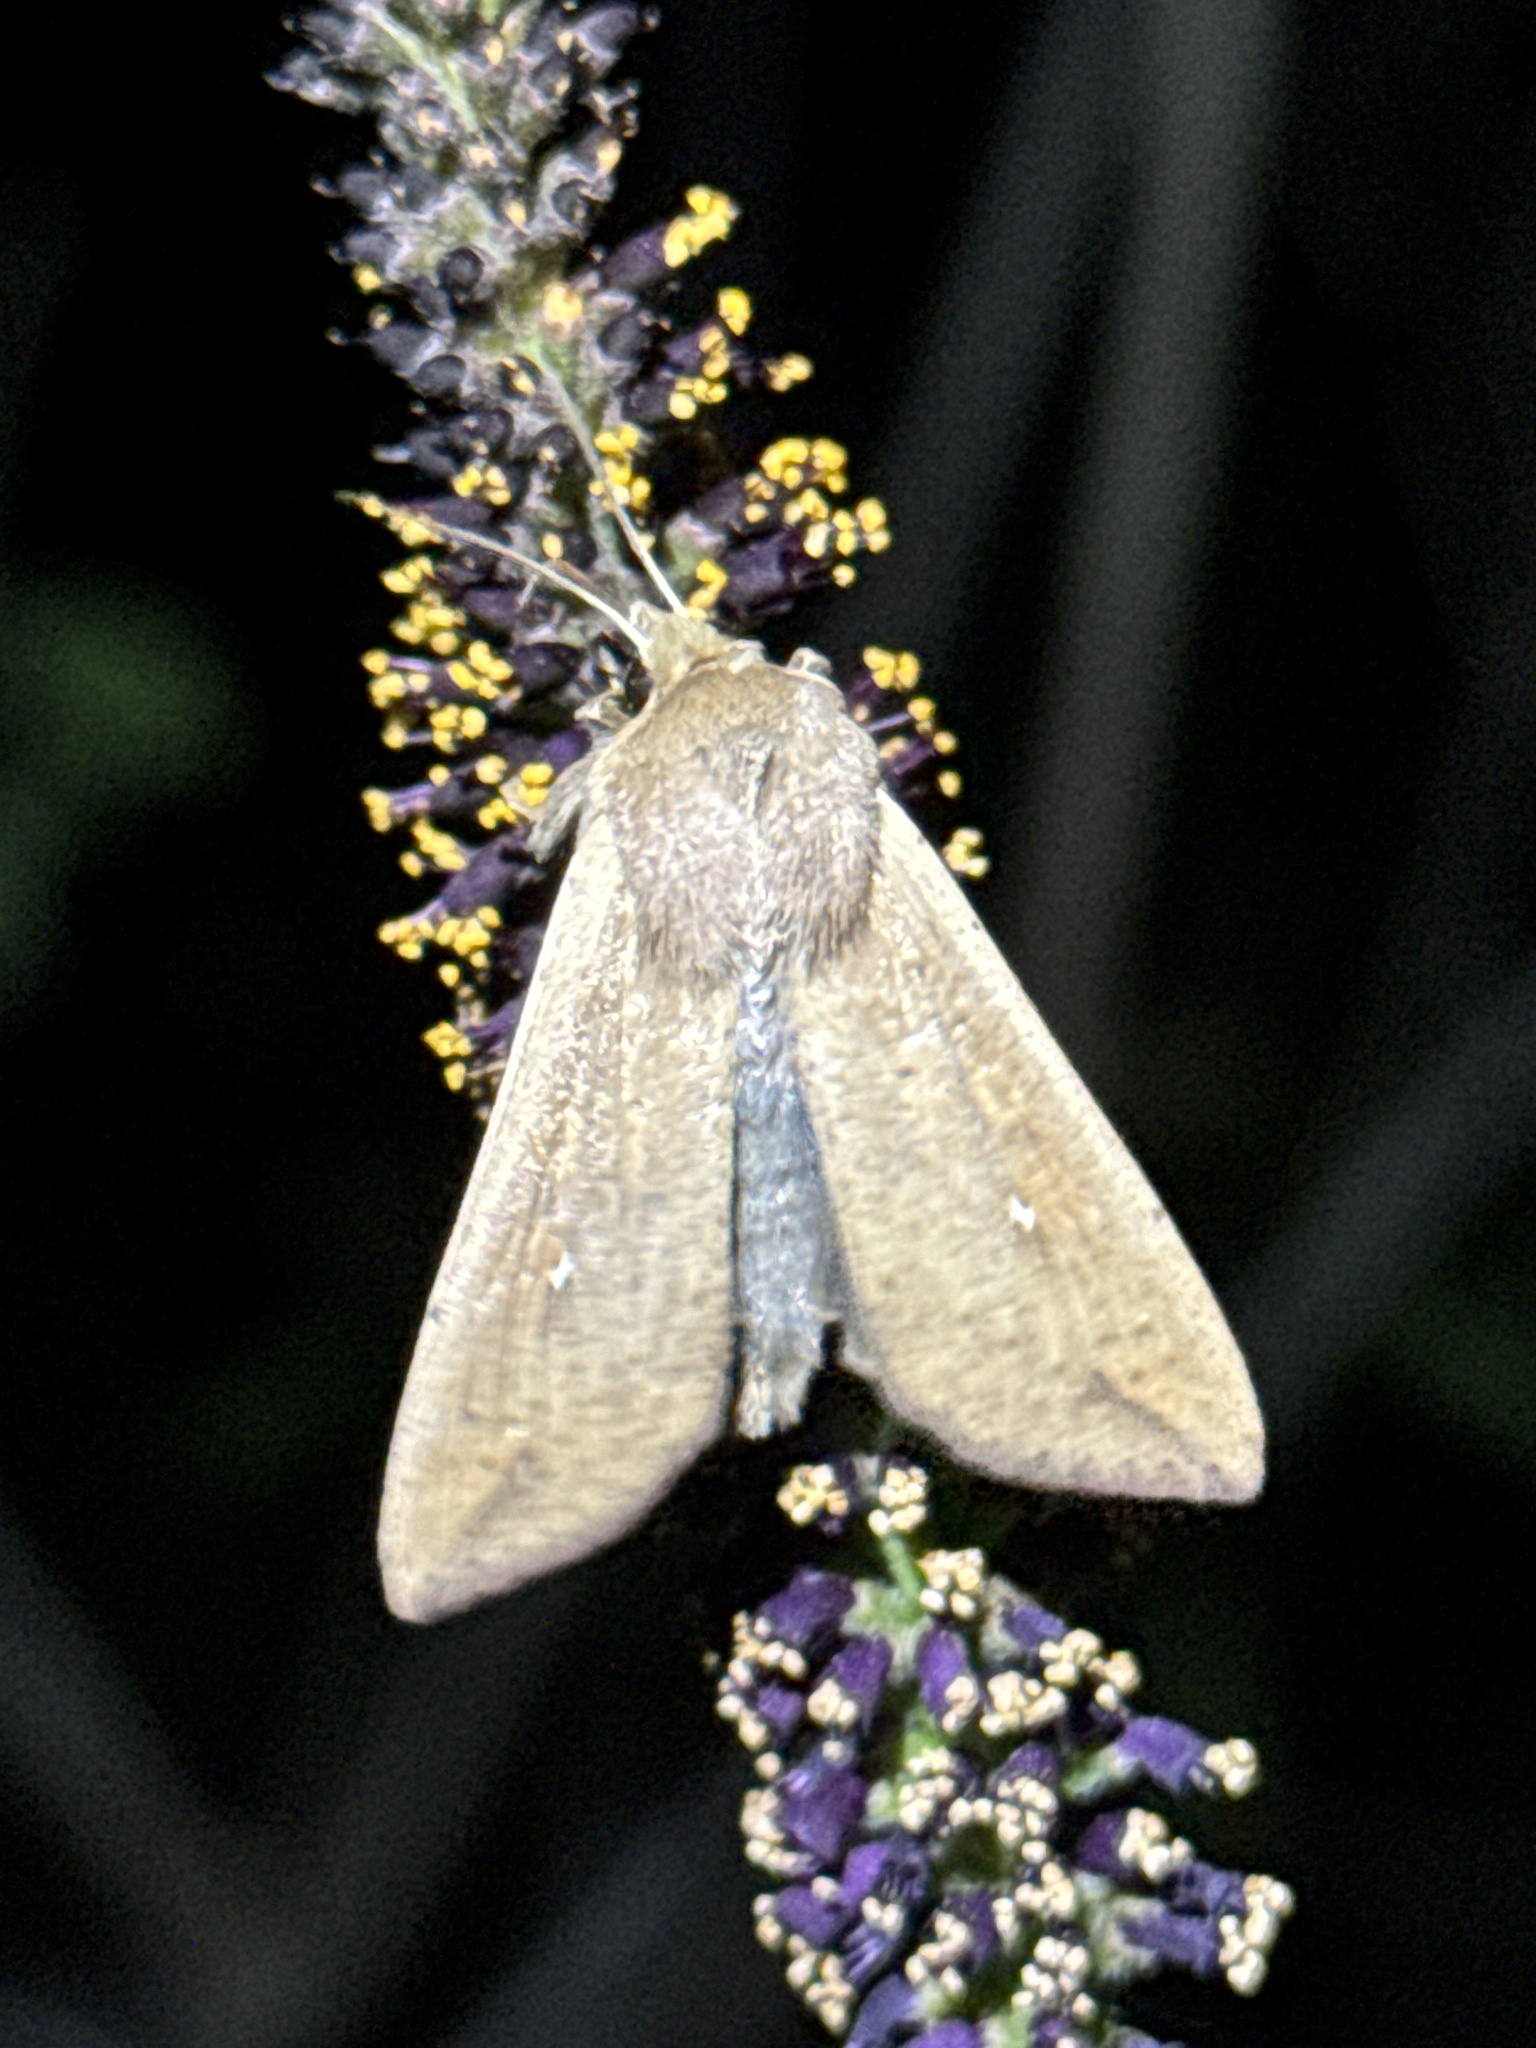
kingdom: Animalia
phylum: Arthropoda
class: Insecta
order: Lepidoptera
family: Noctuidae
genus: Mythimna
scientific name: Mythimna unipuncta
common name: White-speck
